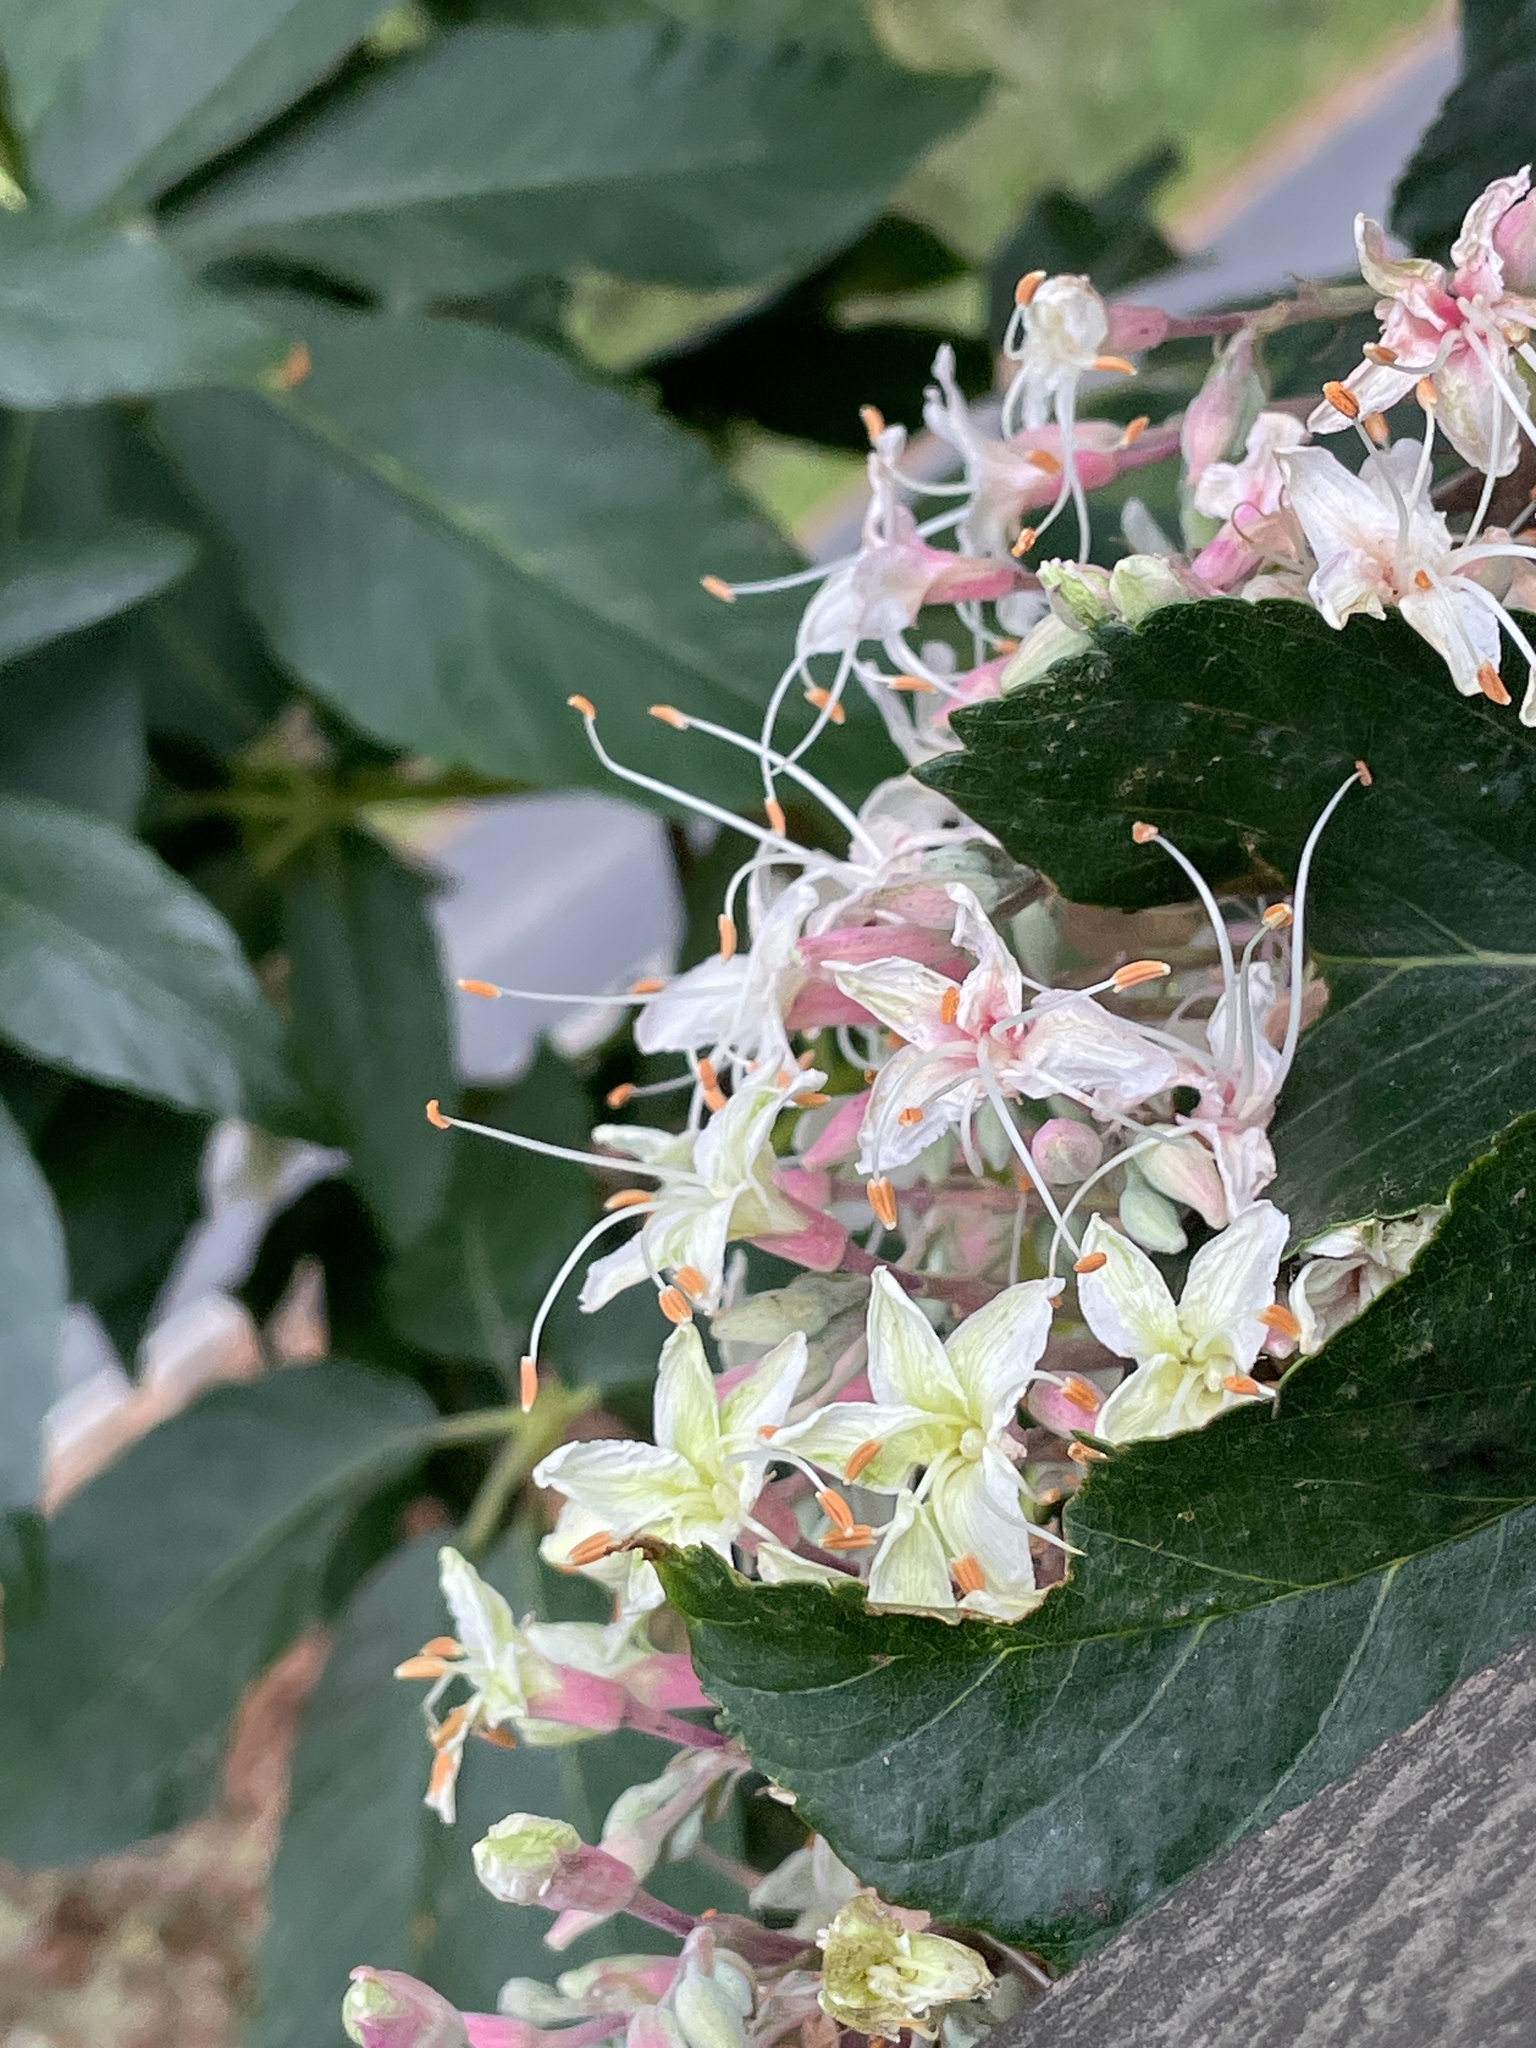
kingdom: Plantae
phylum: Tracheophyta
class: Magnoliopsida
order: Sapindales
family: Sapindaceae
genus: Aesculus
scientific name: Aesculus californica
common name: California buckeye
